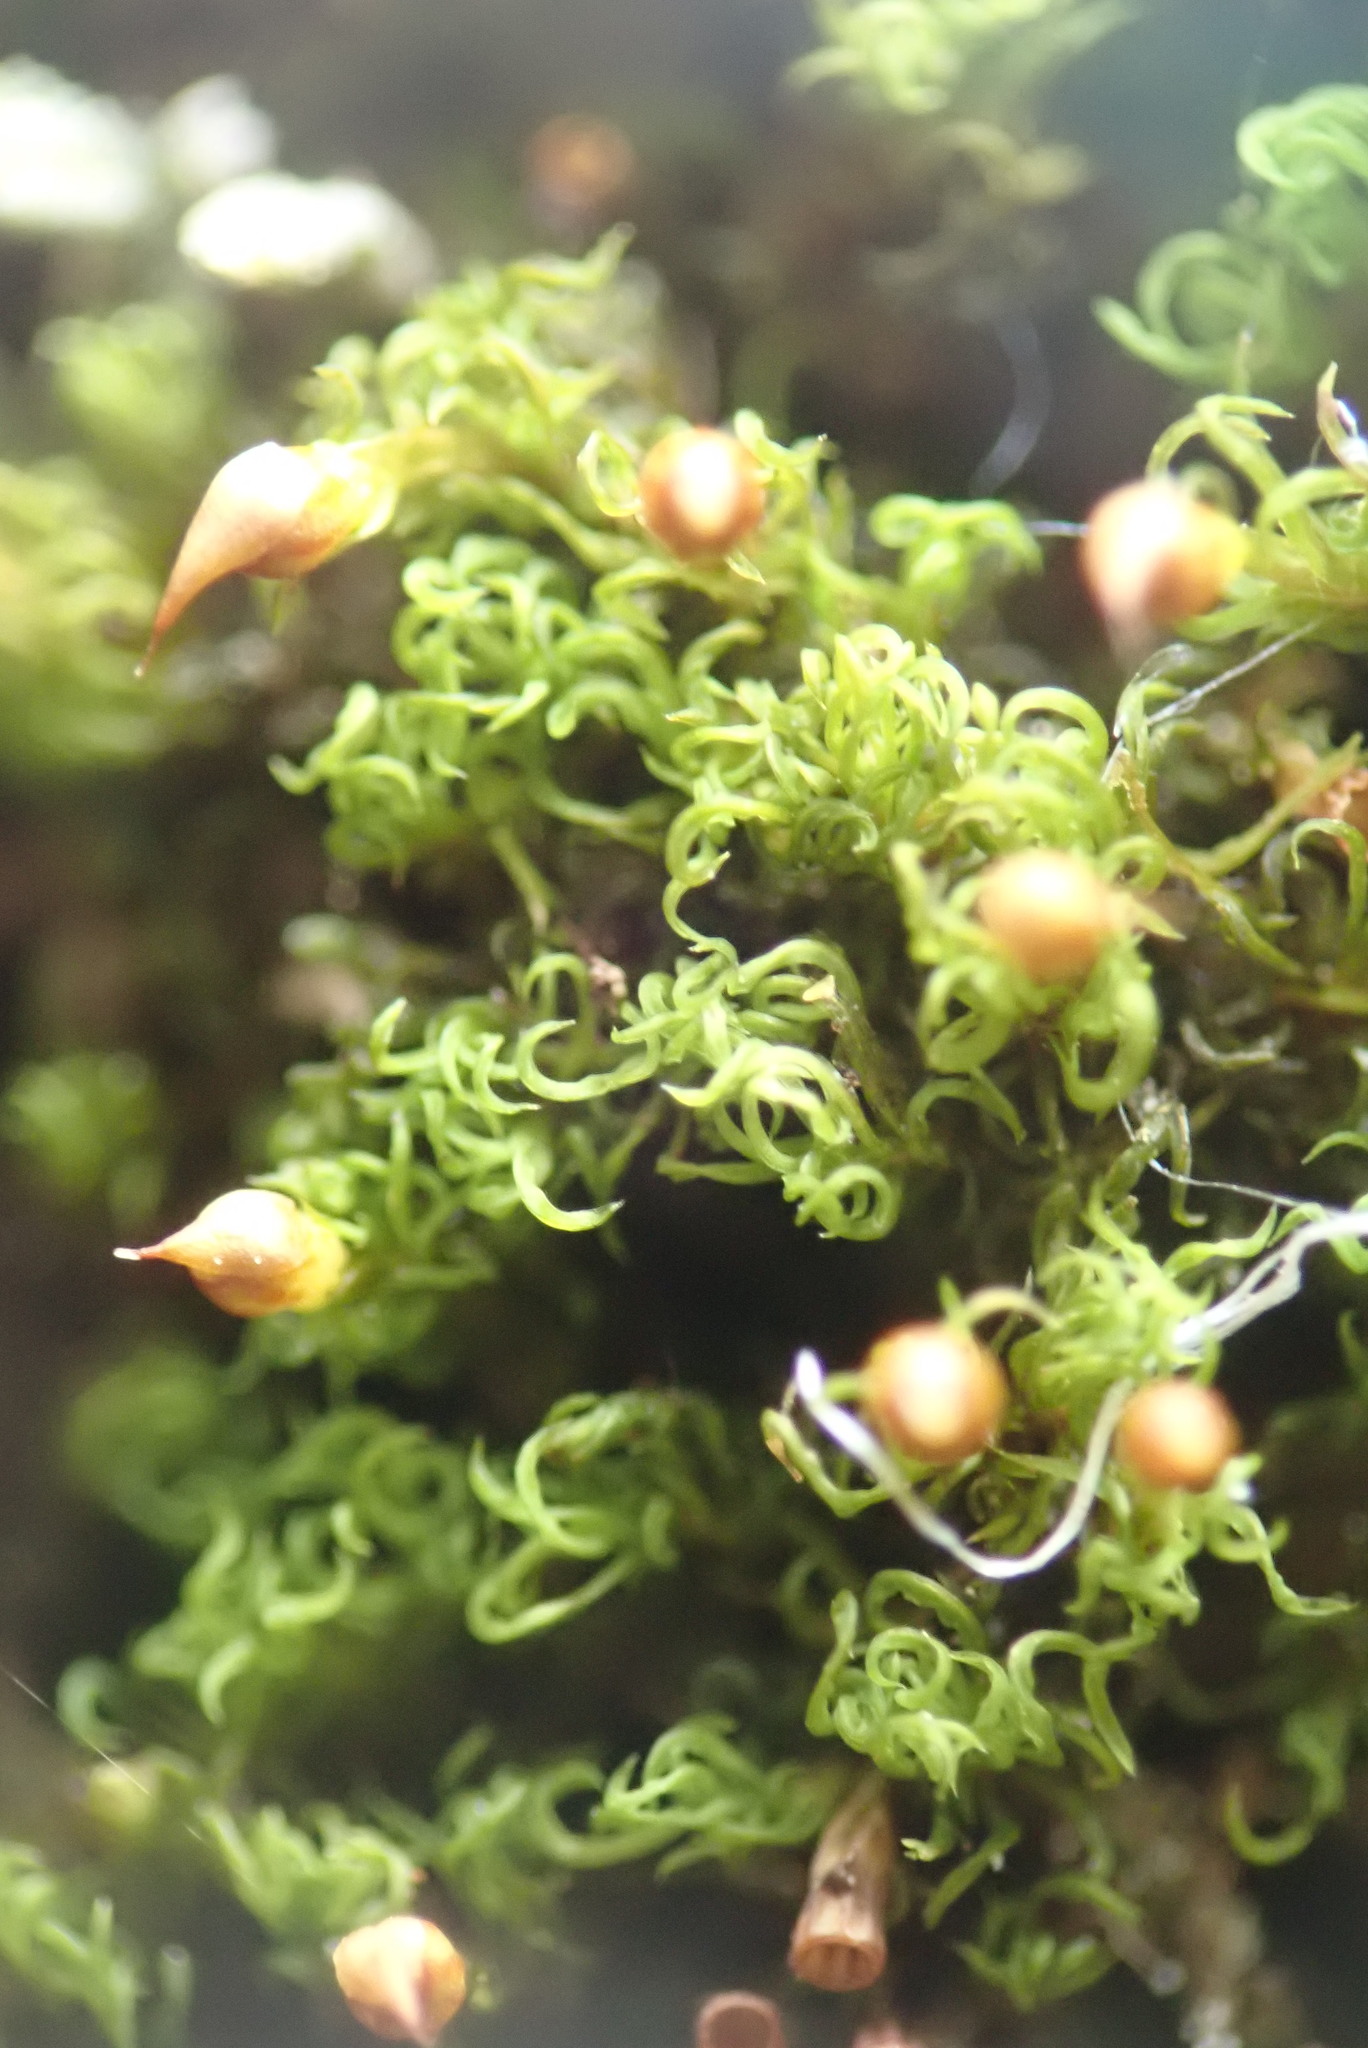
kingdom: Plantae
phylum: Bryophyta
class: Bryopsida
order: Dicranales
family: Amphidiaceae
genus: Amphidium
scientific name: Amphidium lapponicum
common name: Lapland yoke moss
